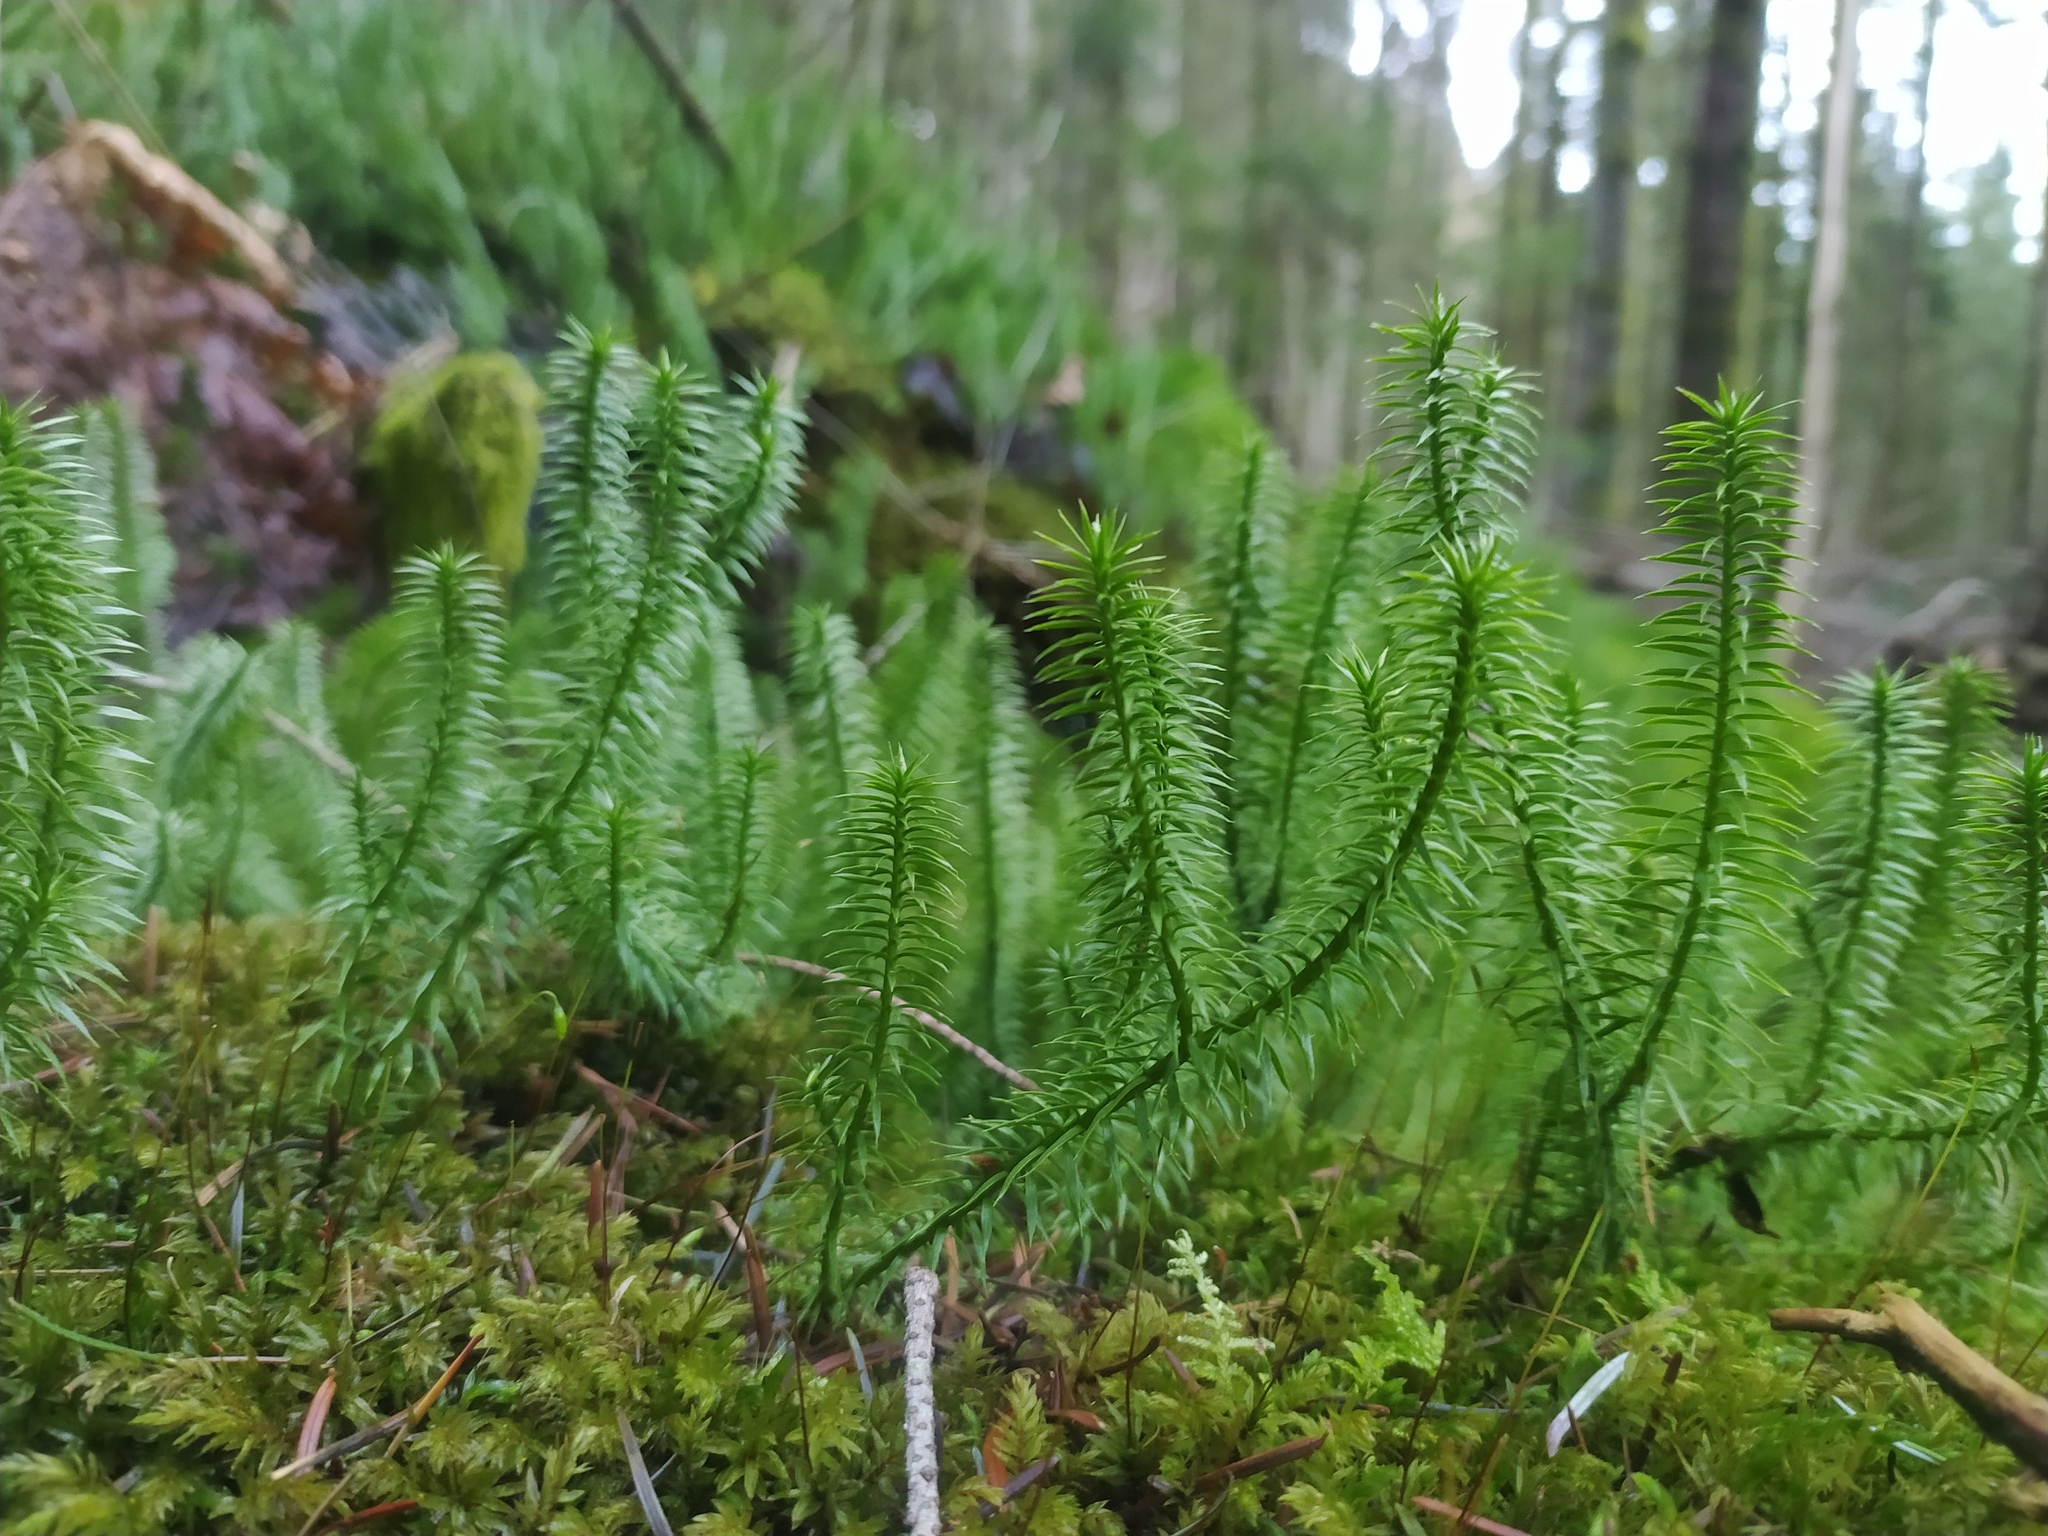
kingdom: Plantae
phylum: Tracheophyta
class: Lycopodiopsida
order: Lycopodiales
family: Lycopodiaceae
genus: Spinulum
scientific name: Spinulum annotinum
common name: Interrupted club-moss
